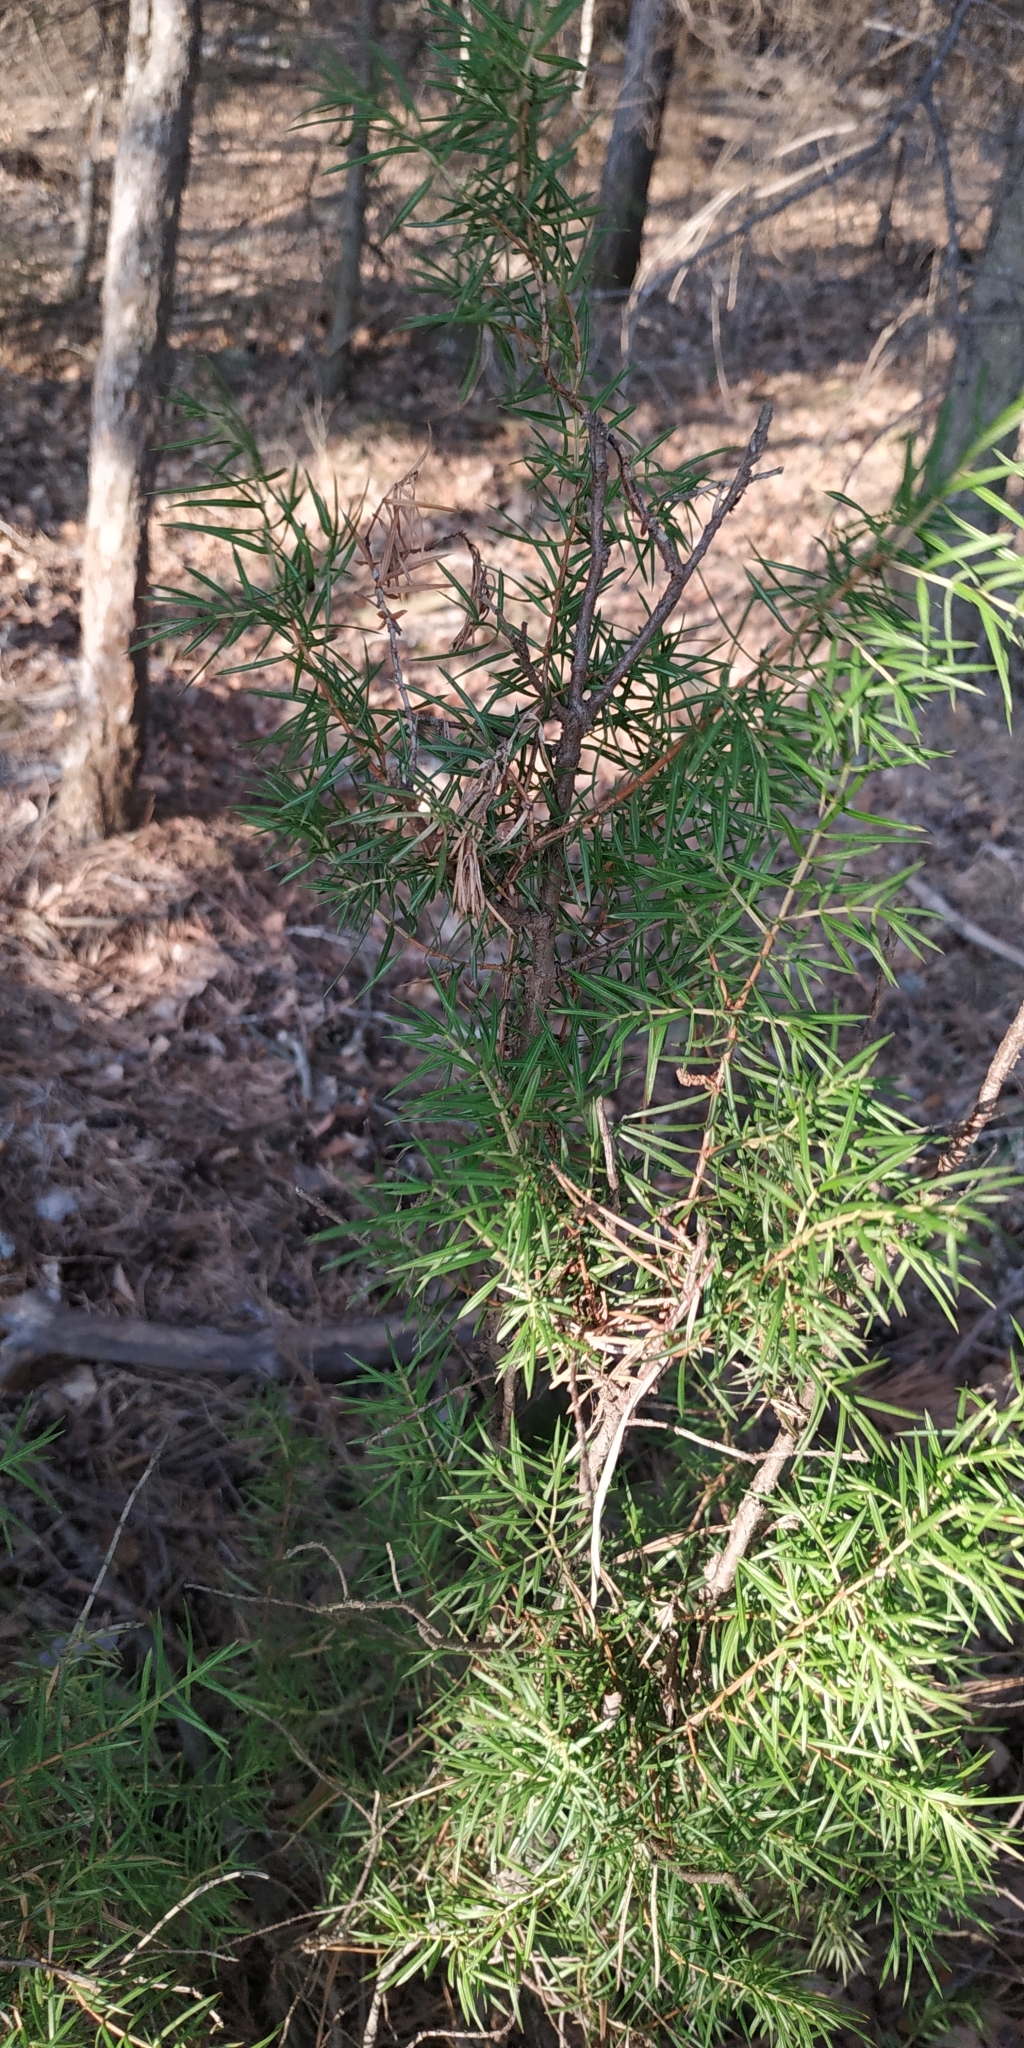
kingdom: Plantae
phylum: Tracheophyta
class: Pinopsida
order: Pinales
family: Cupressaceae
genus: Juniperus
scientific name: Juniperus communis
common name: Common juniper
